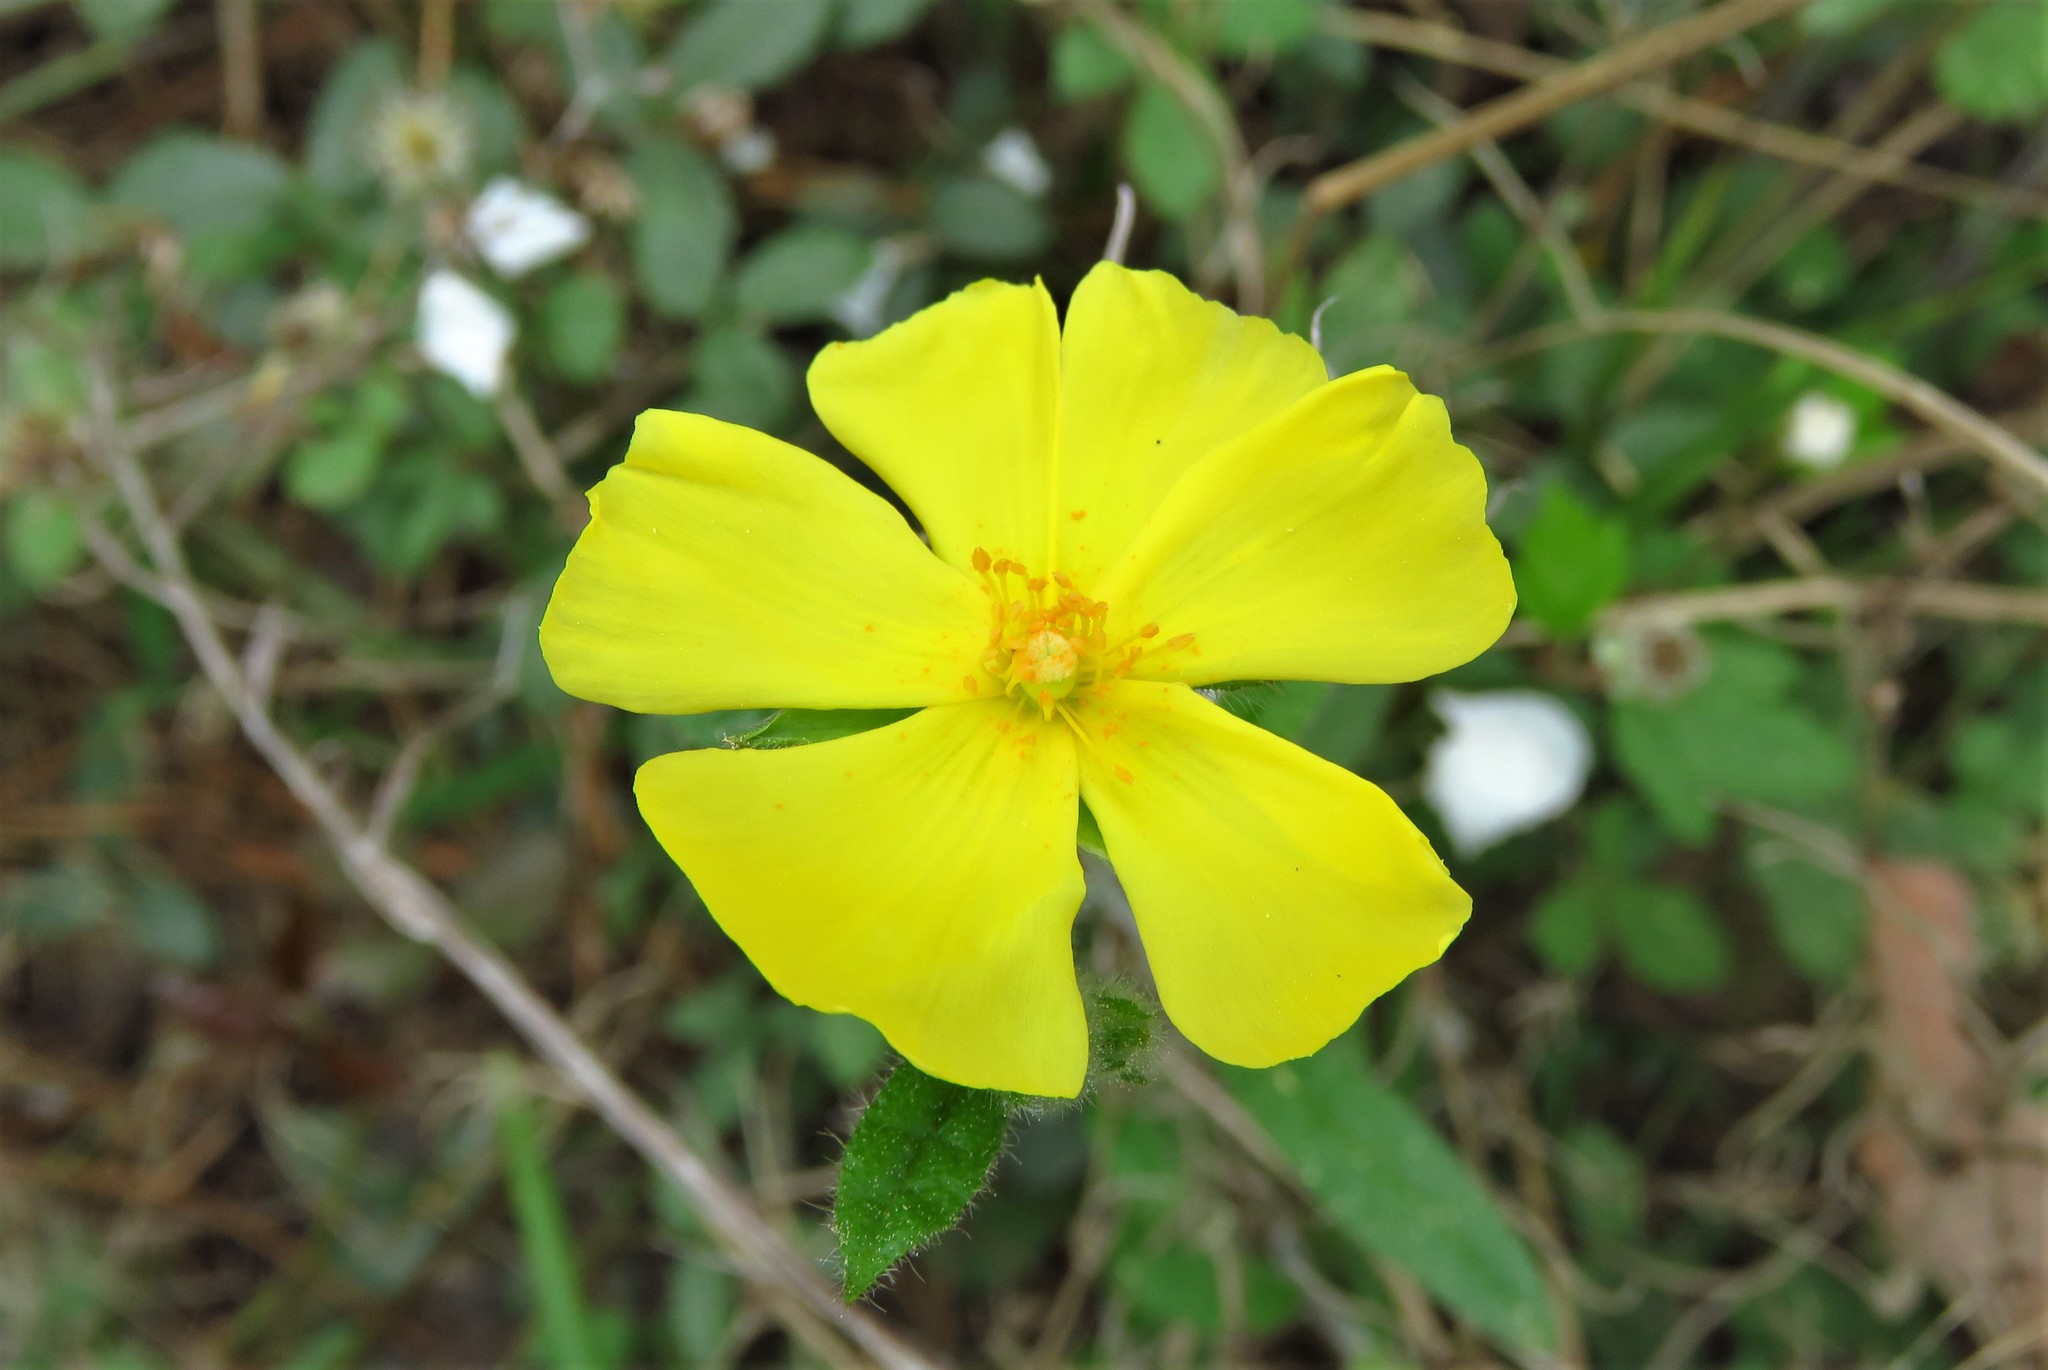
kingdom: Plantae
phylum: Tracheophyta
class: Magnoliopsida
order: Malvales
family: Cistaceae
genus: Crocanthemum
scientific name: Crocanthemum carolinianum
